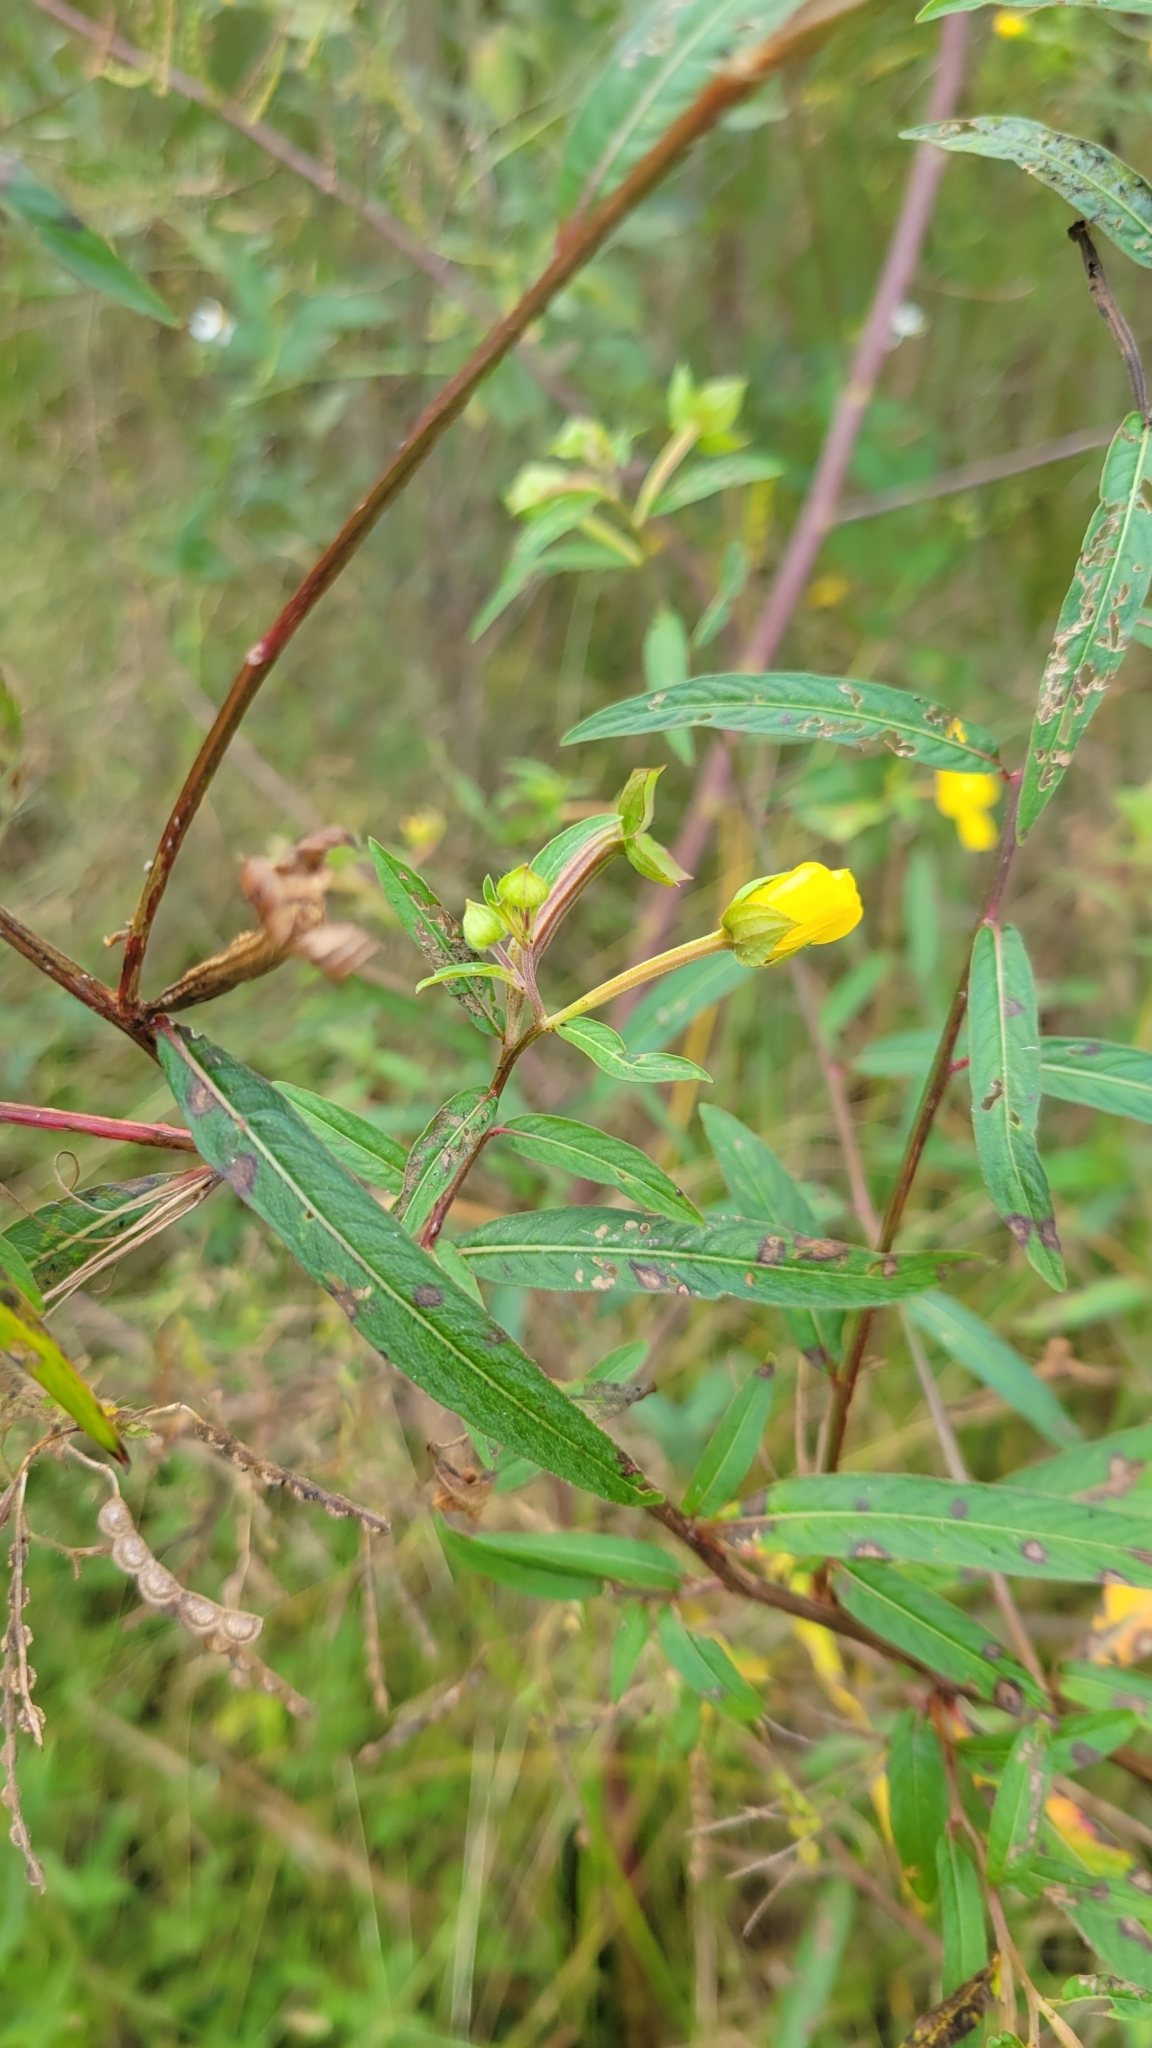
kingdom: Plantae
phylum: Tracheophyta
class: Magnoliopsida
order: Myrtales
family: Onagraceae
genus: Ludwigia
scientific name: Ludwigia octovalvis
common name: Water-primrose
